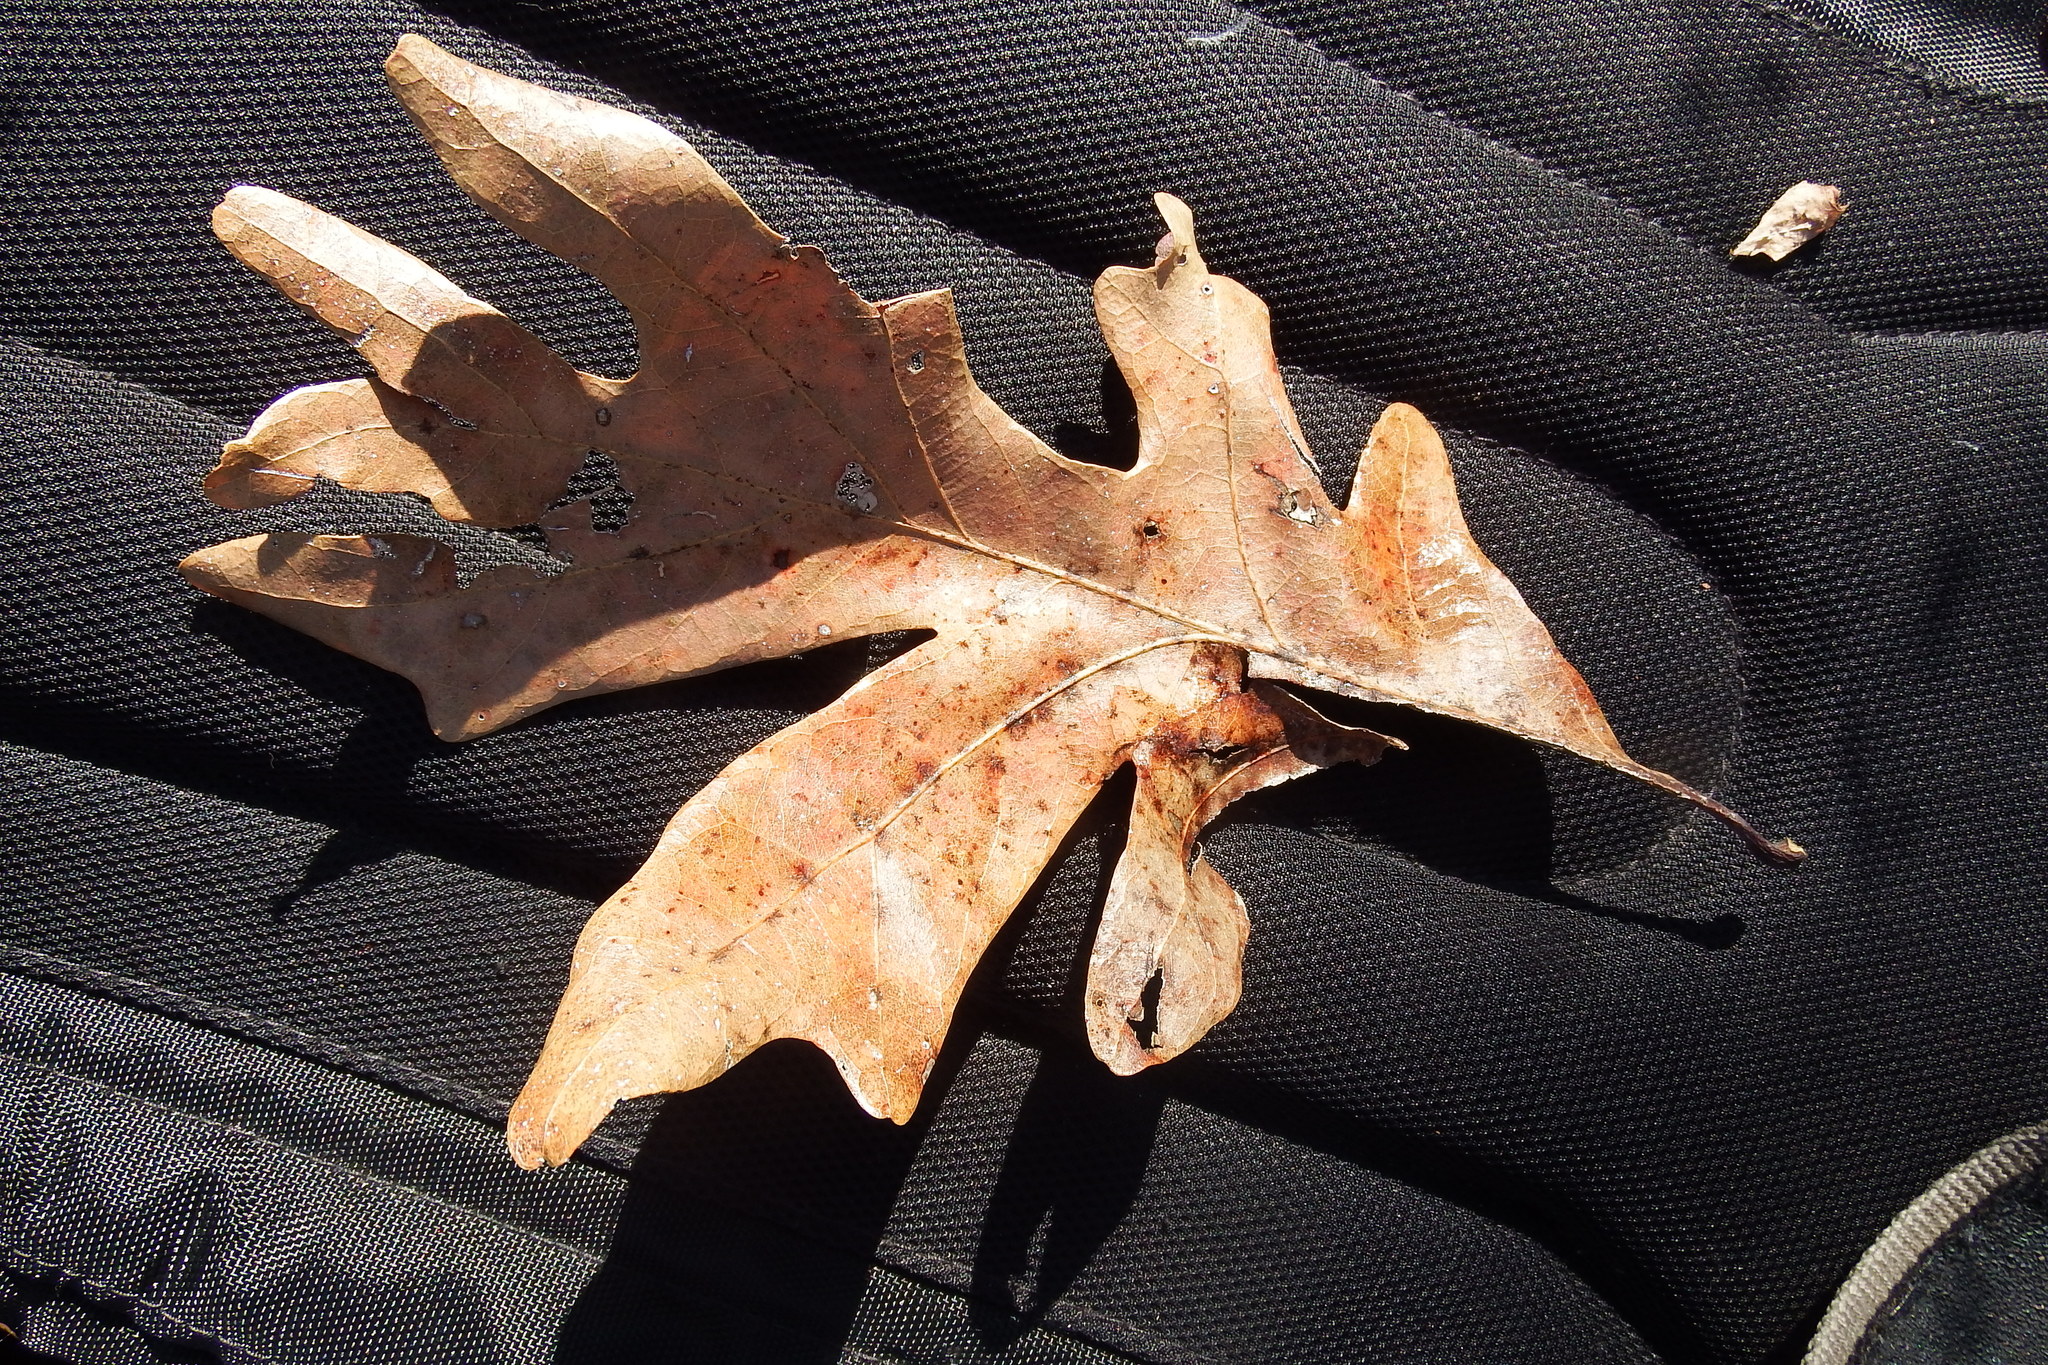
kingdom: Plantae
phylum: Tracheophyta
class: Magnoliopsida
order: Fagales
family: Fagaceae
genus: Quercus
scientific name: Quercus alba
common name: White oak
